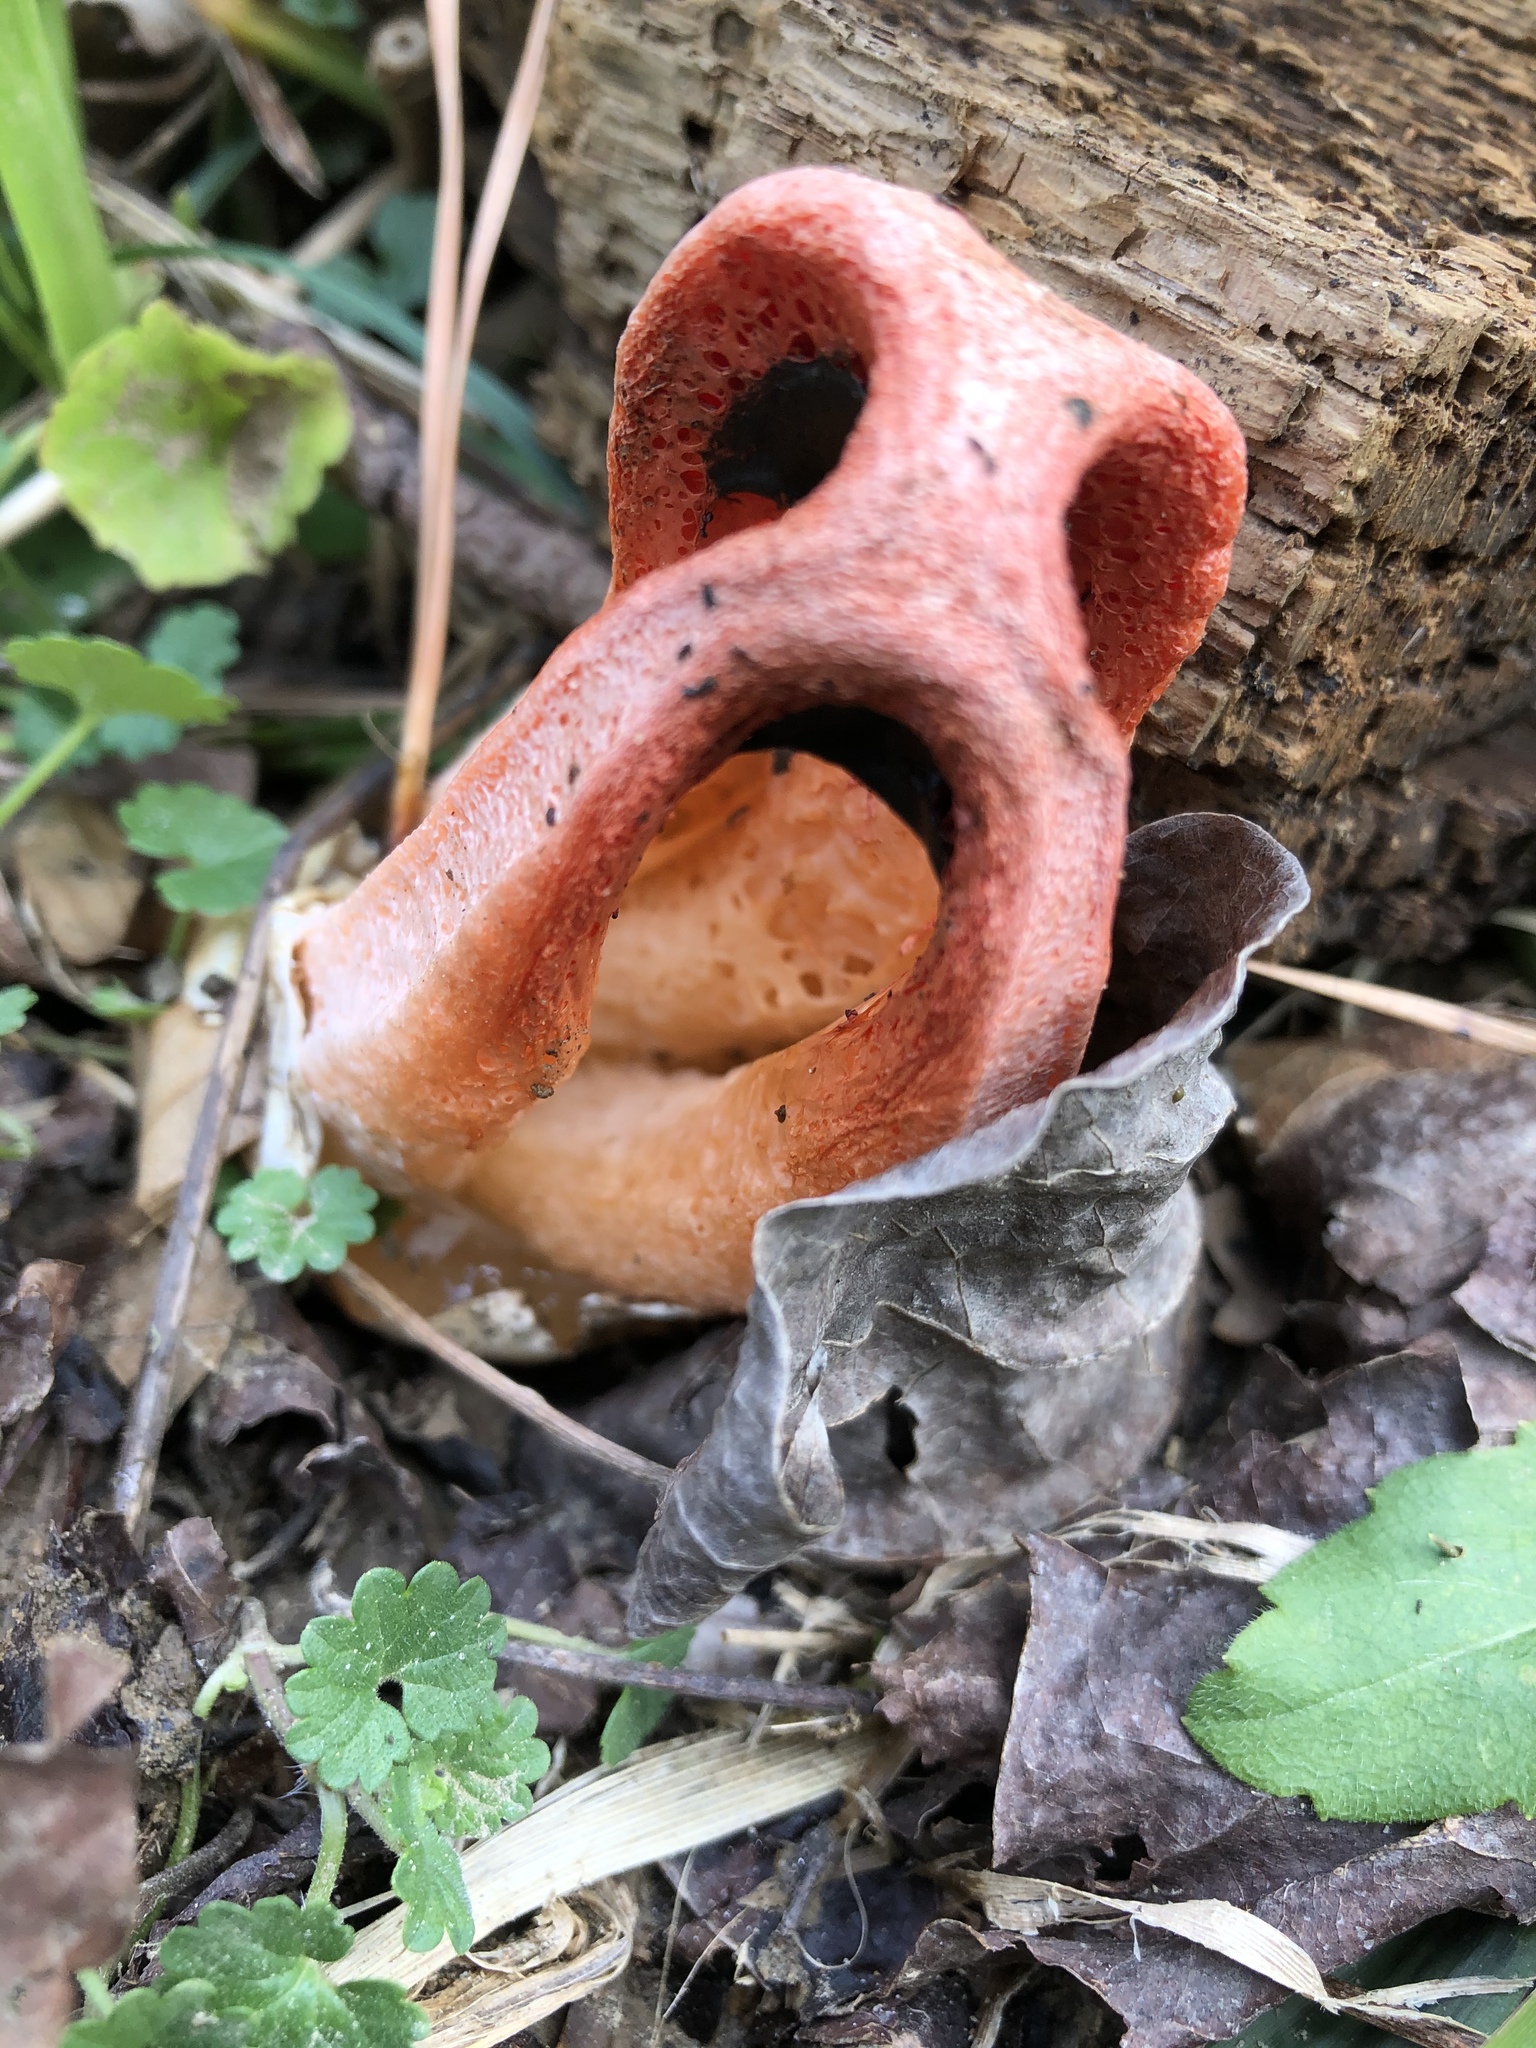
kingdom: Fungi
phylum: Basidiomycota
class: Agaricomycetes
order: Phallales
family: Phallaceae
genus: Clathrus
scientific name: Clathrus columnatus
